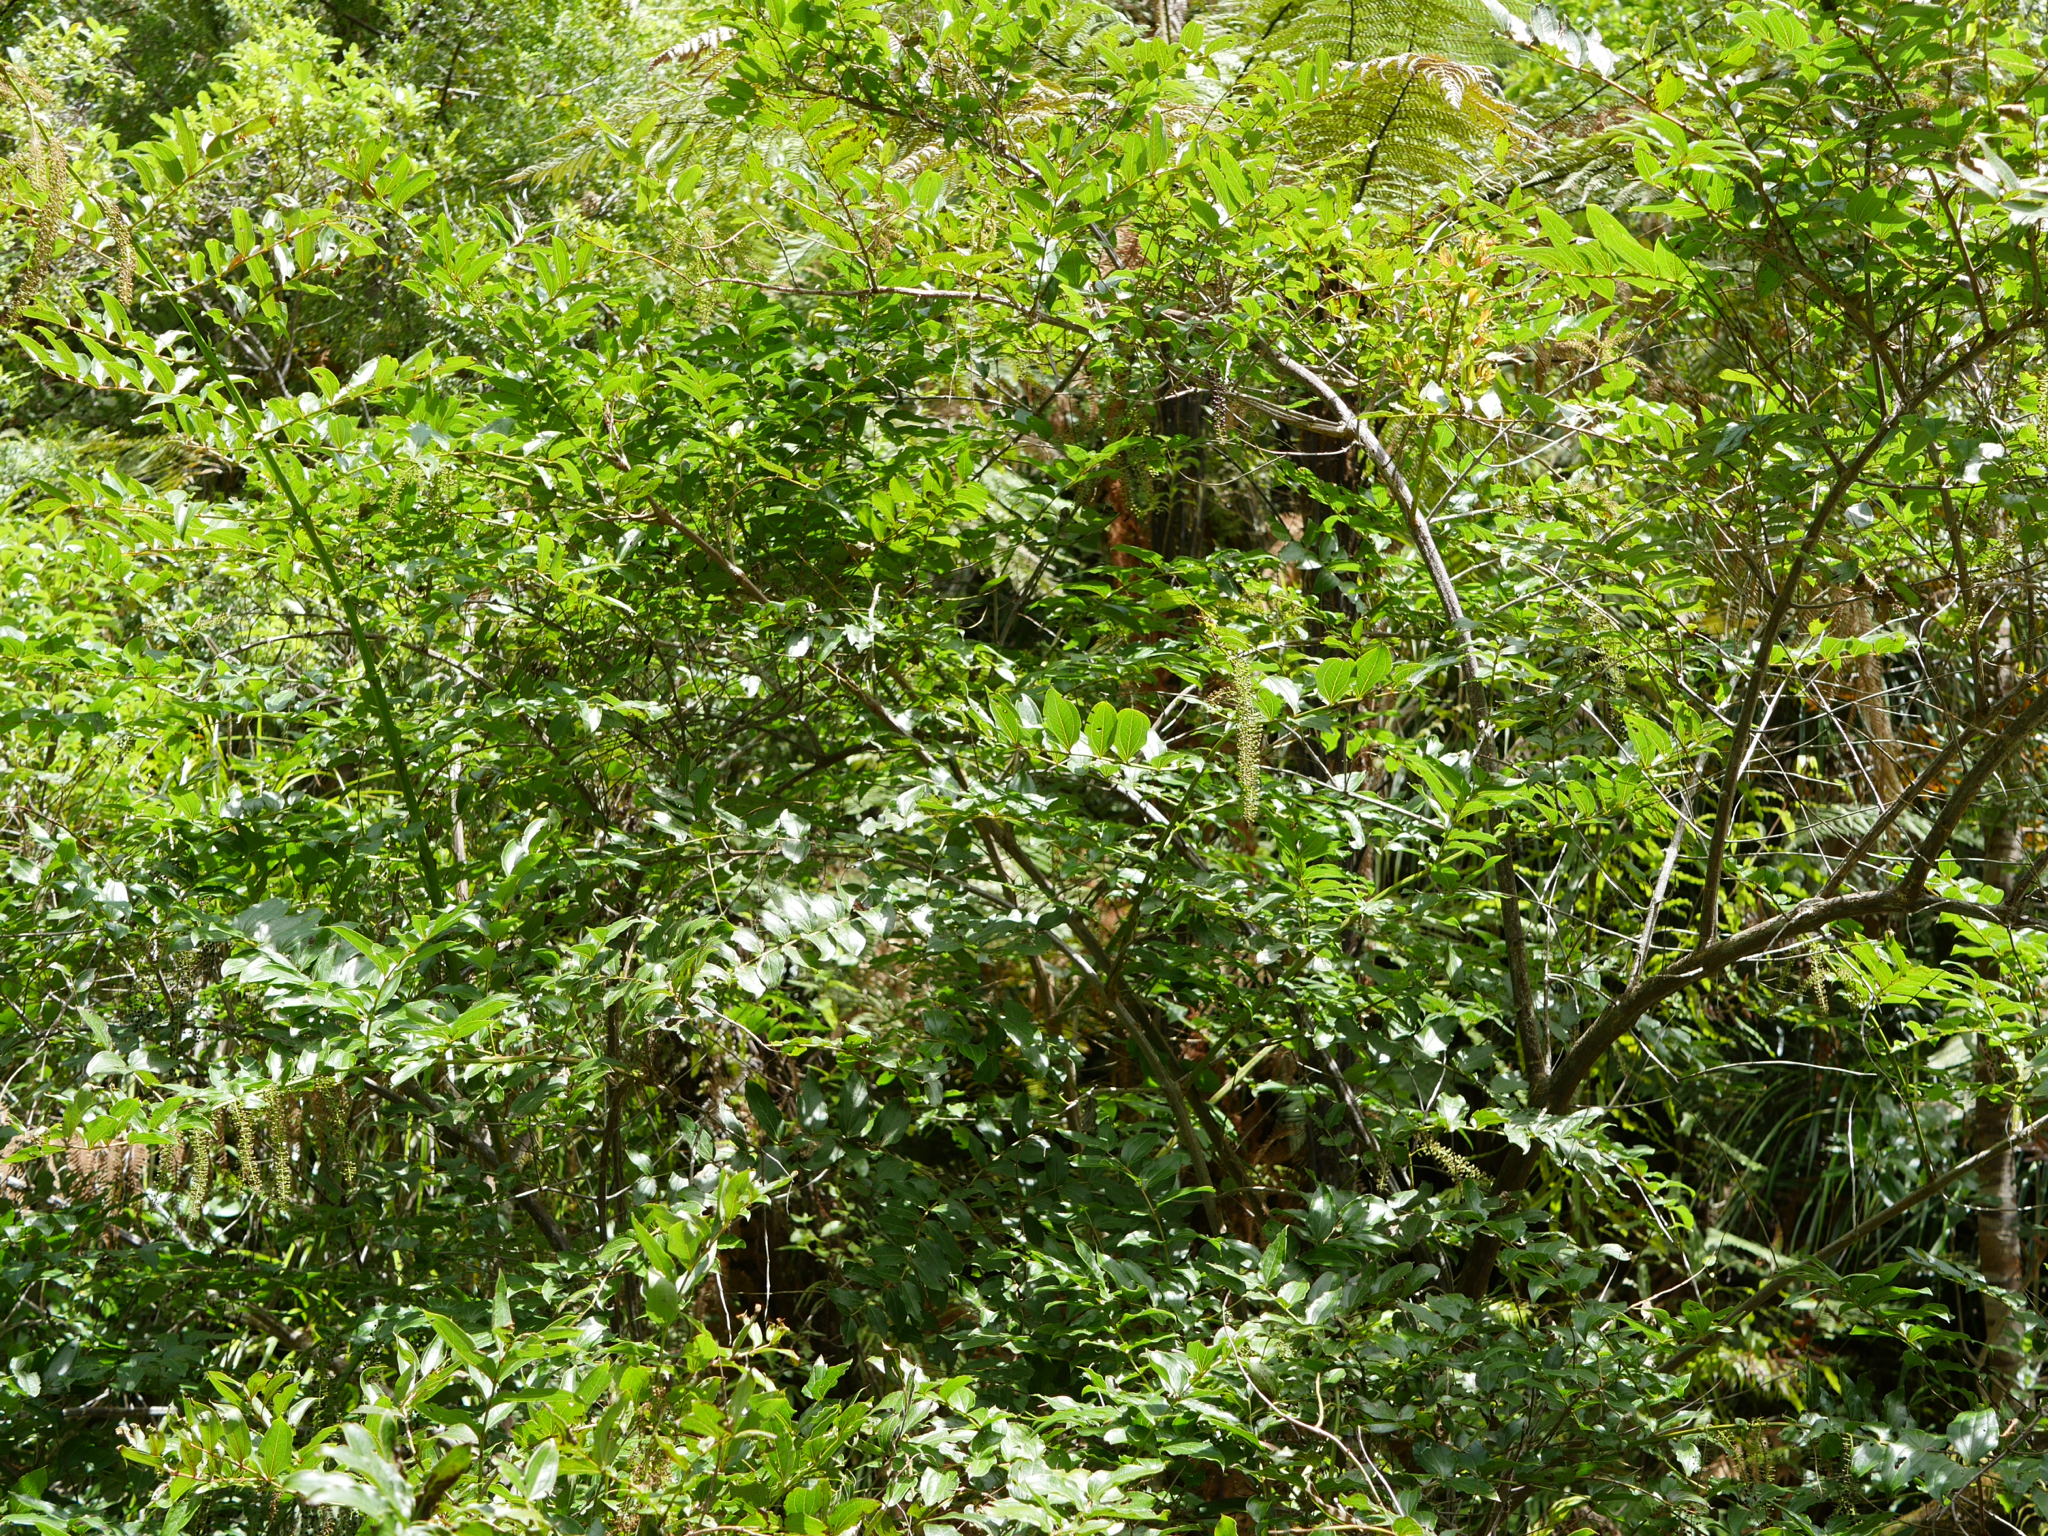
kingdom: Plantae
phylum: Tracheophyta
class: Magnoliopsida
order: Cucurbitales
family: Coriariaceae
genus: Coriaria
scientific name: Coriaria arborea
